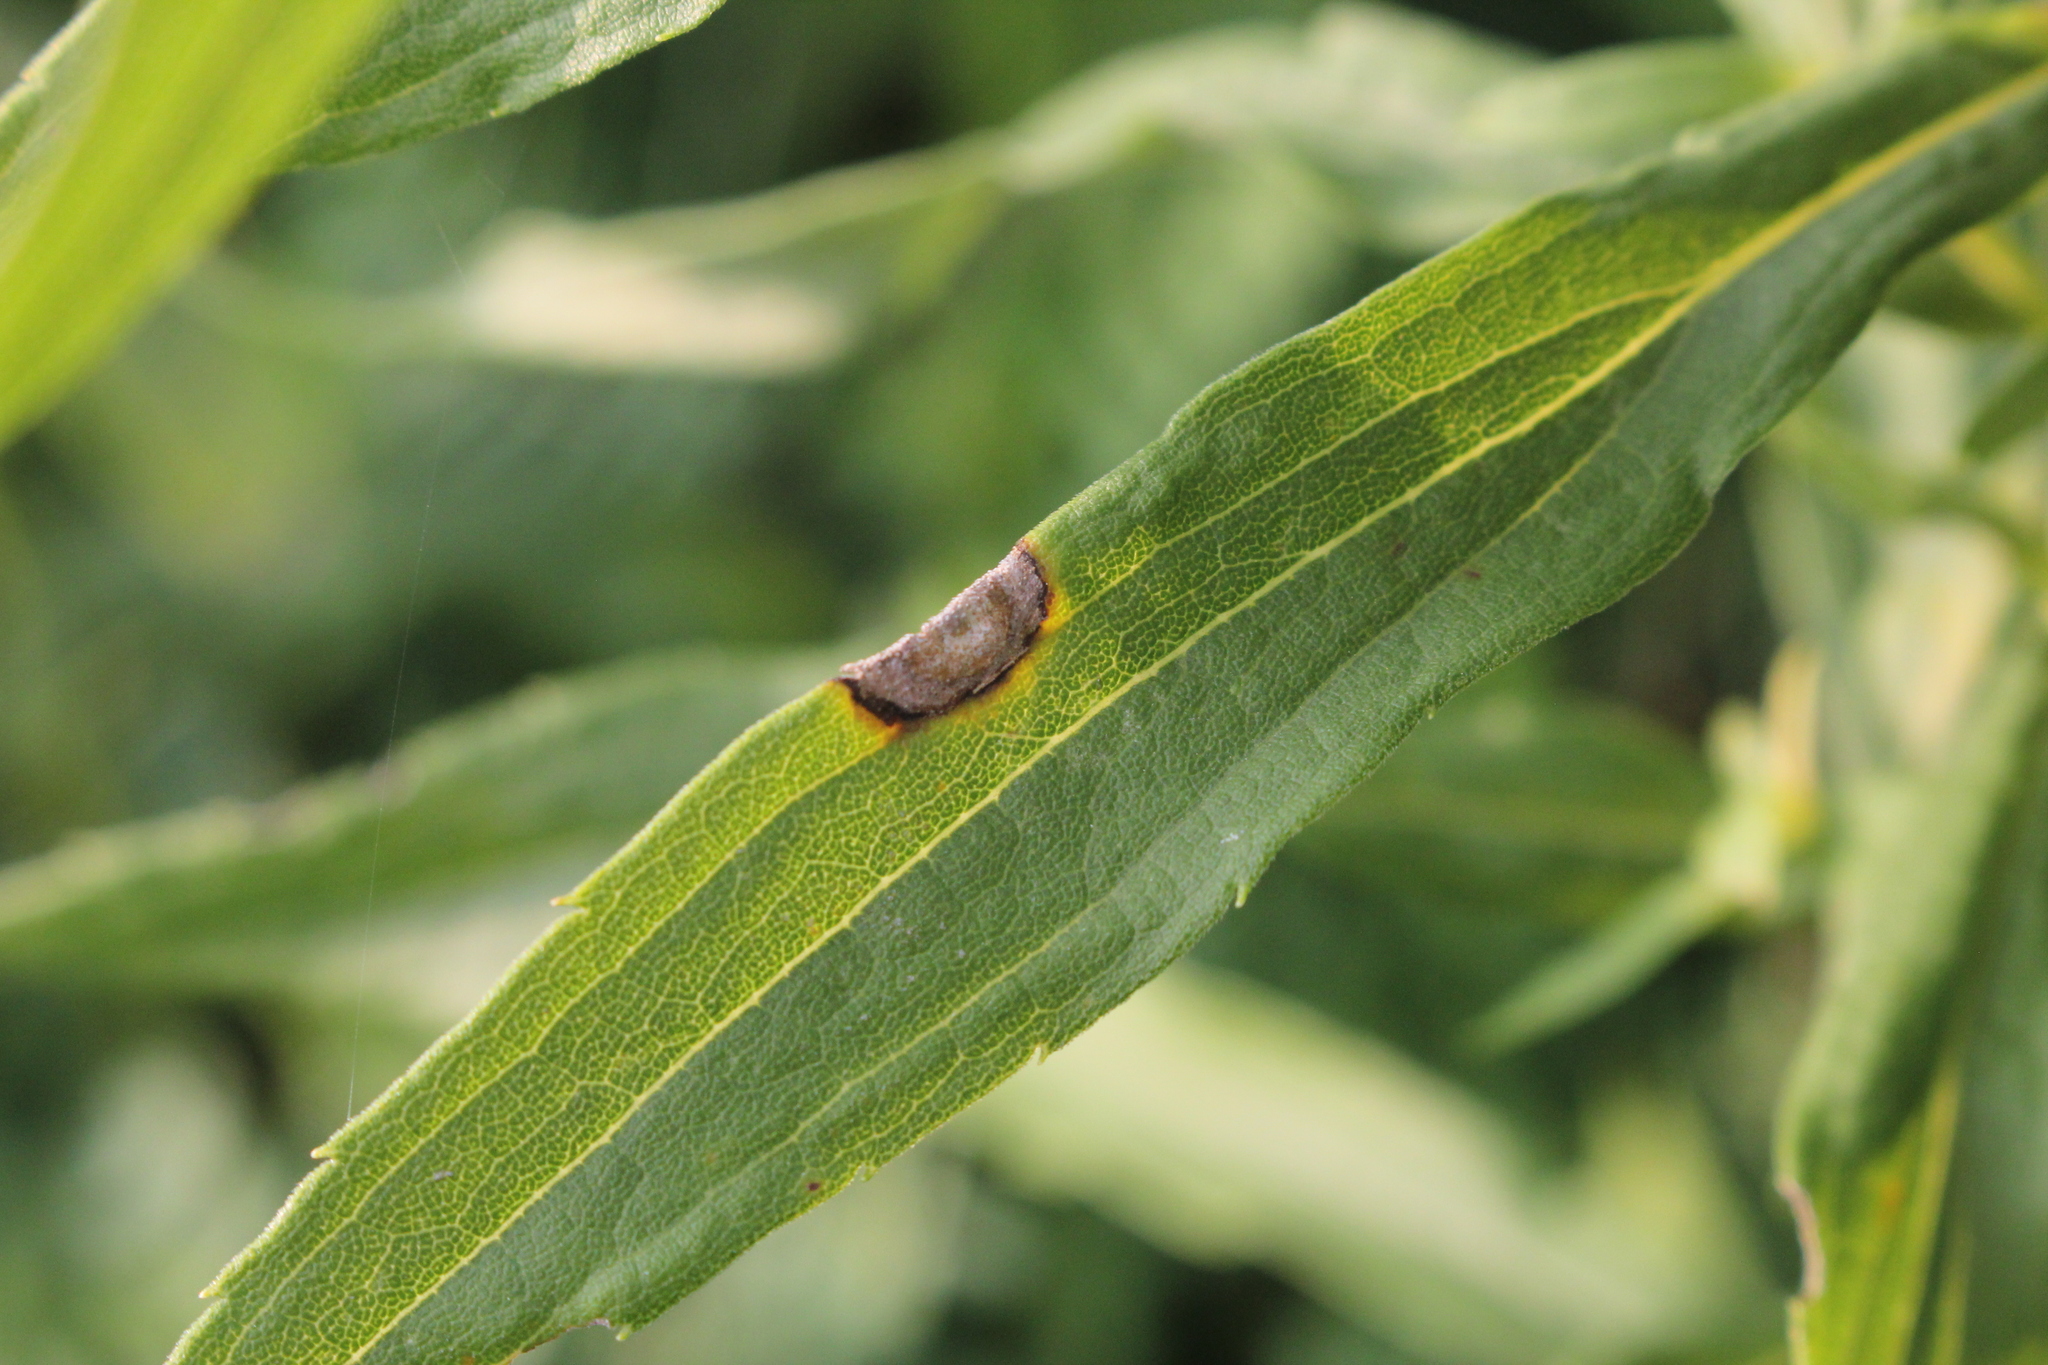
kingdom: Fungi
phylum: Ascomycota
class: Dothideomycetes
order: Botryosphaeriales
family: Botryosphaeriaceae
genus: Botryosphaeria
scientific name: Botryosphaeria dothidea
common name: Asteromyia gall midge fungus
